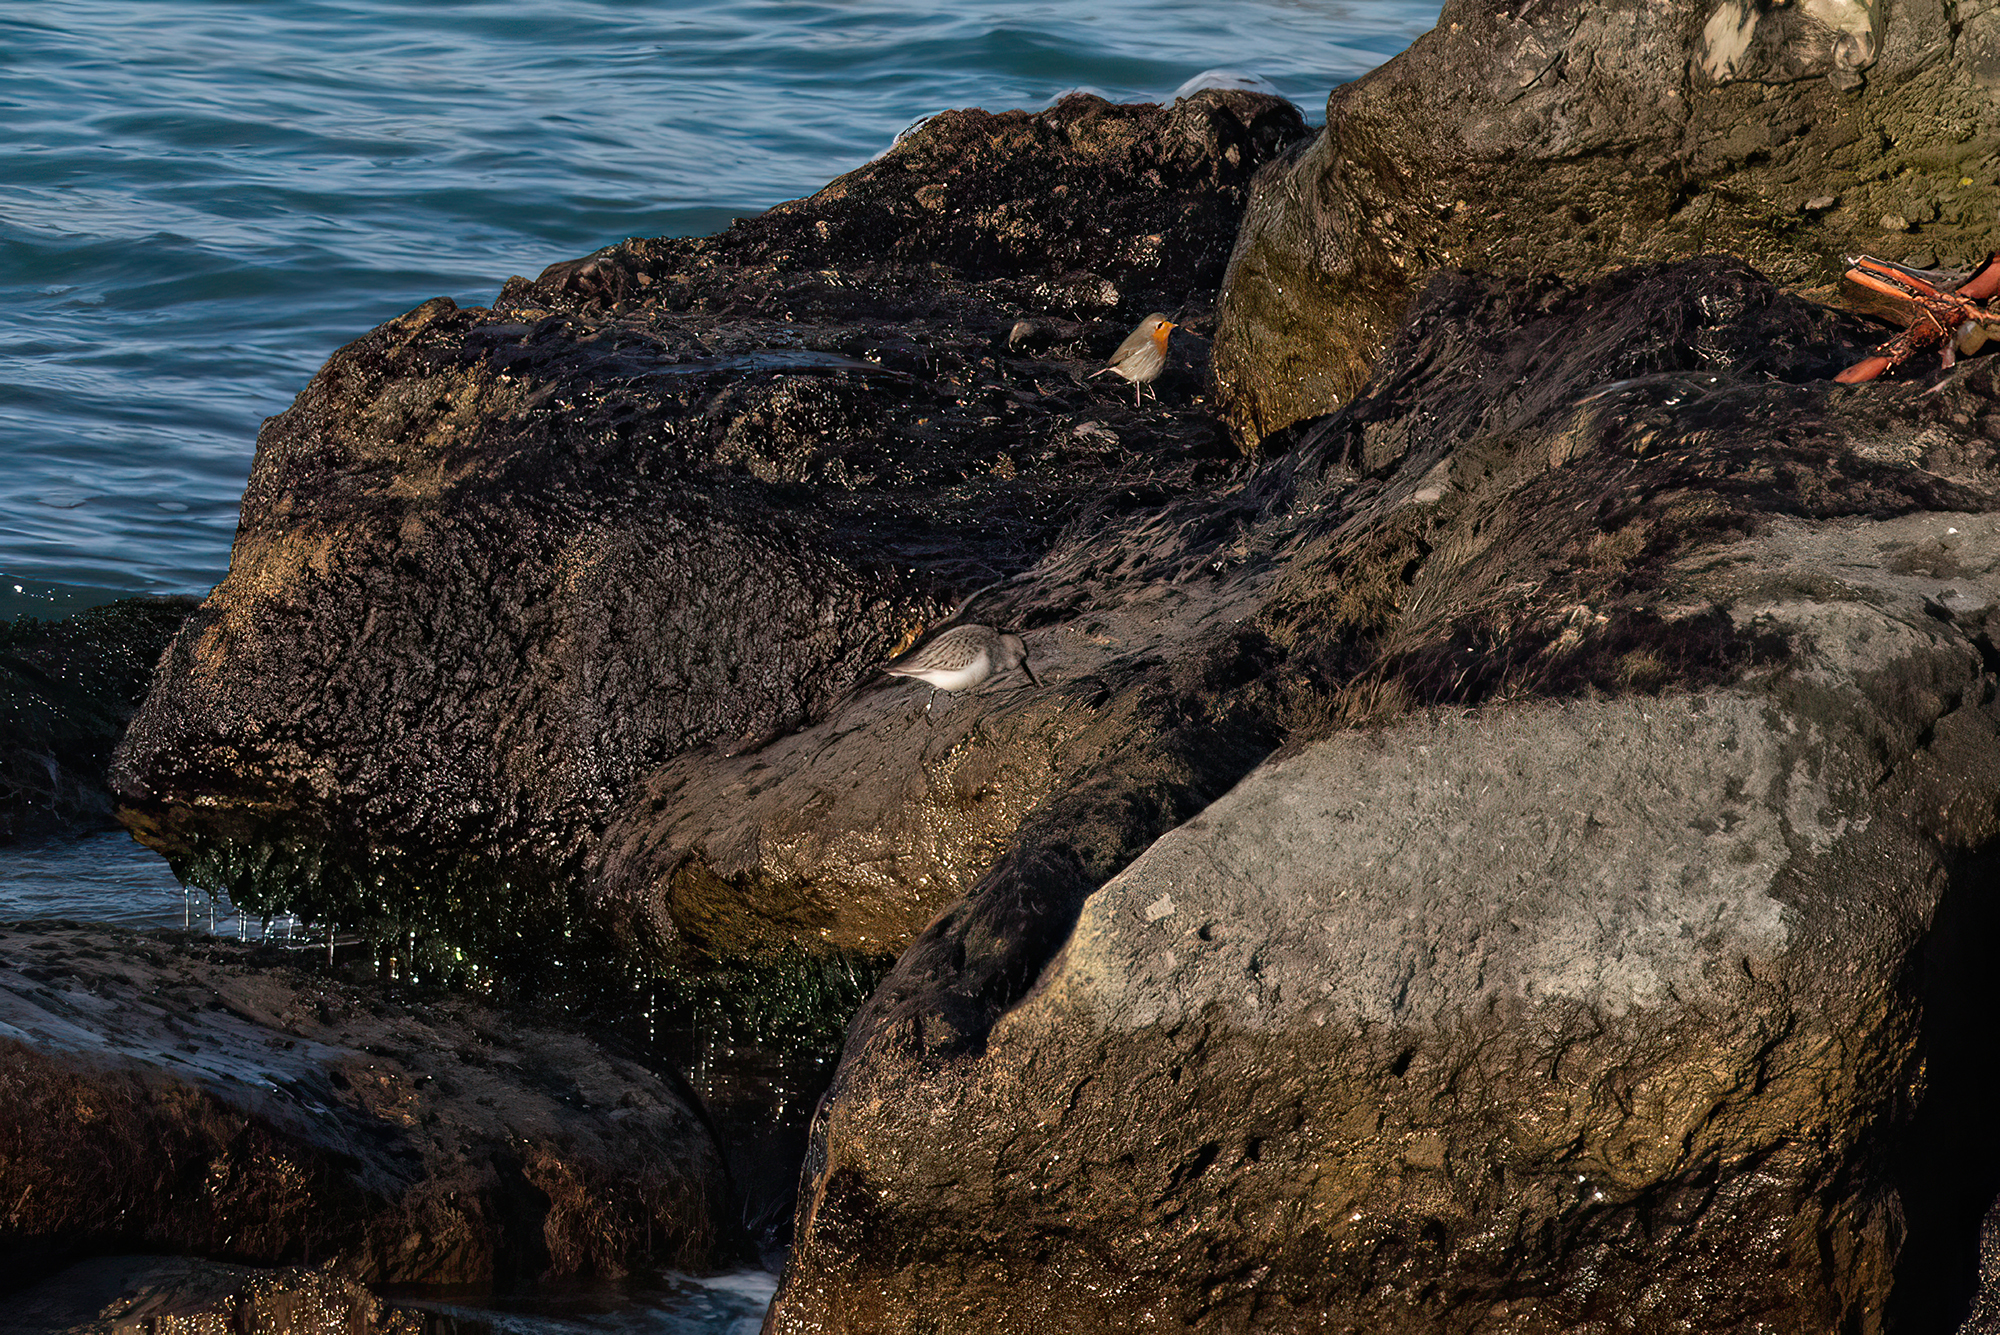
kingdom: Animalia
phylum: Chordata
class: Aves
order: Charadriiformes
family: Scolopacidae
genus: Calidris
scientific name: Calidris alpina
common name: Dunlin
